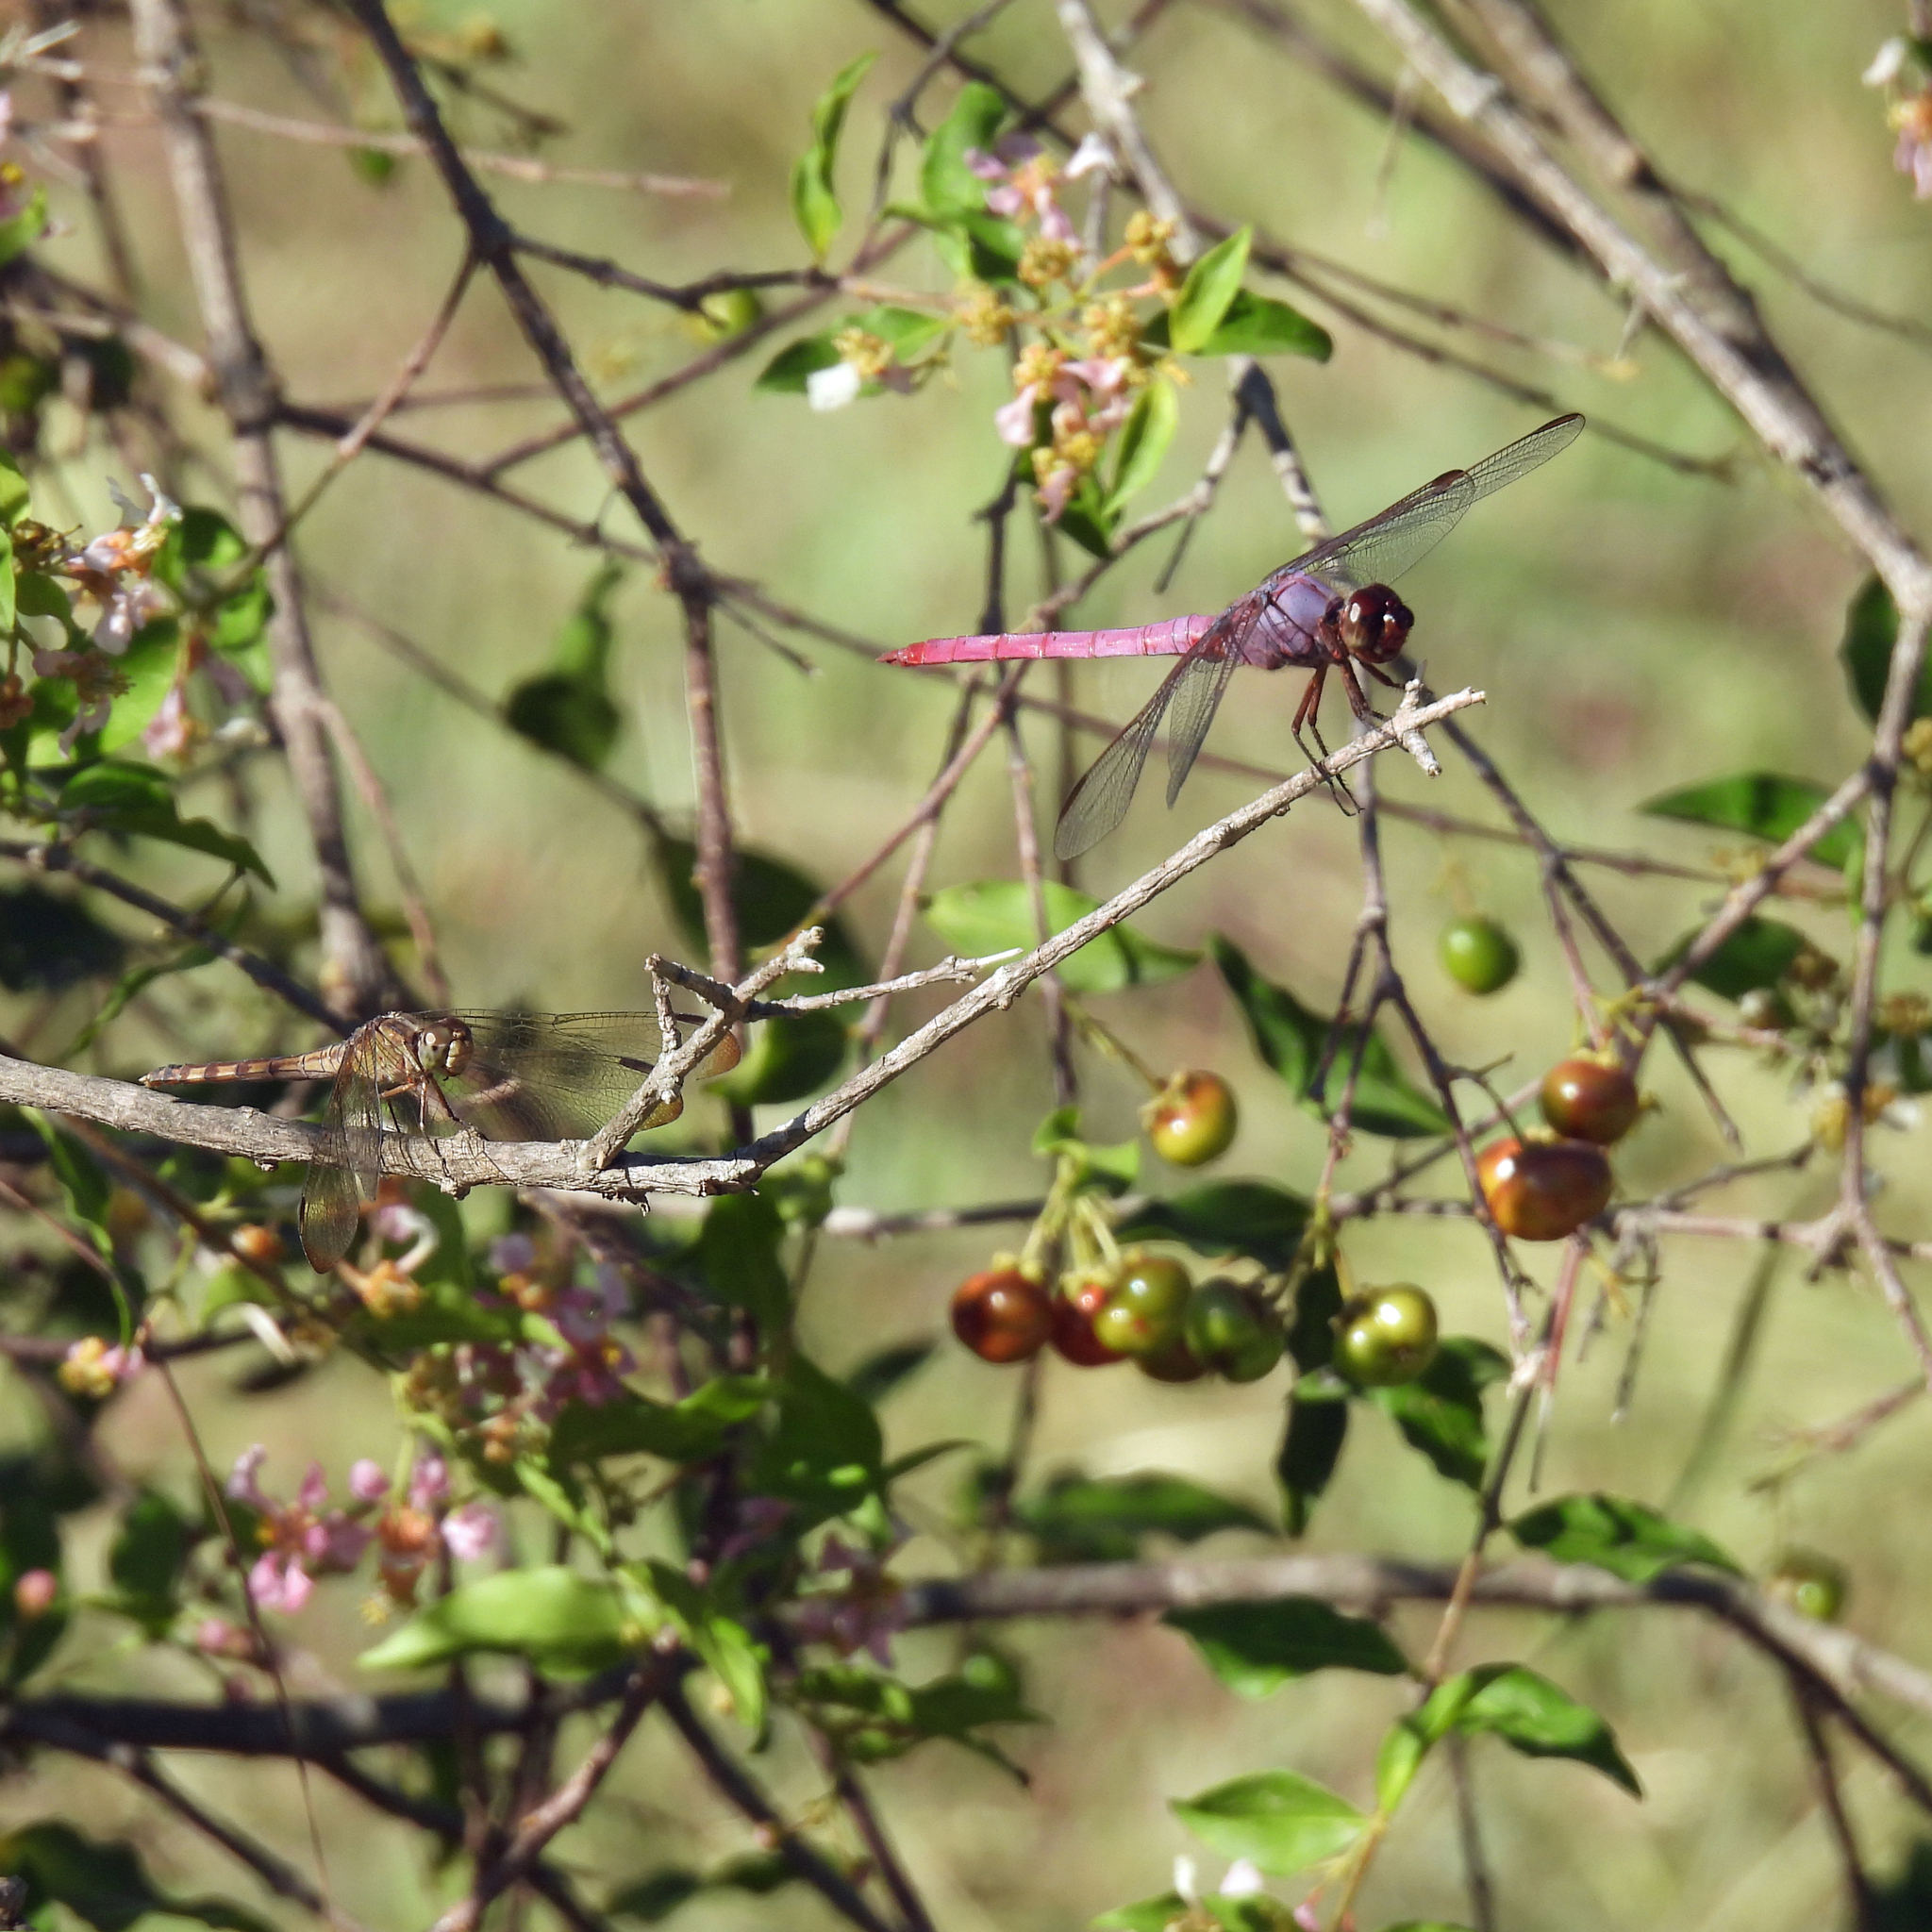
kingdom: Animalia
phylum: Arthropoda
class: Insecta
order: Odonata
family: Libellulidae
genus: Orthemis
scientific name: Orthemis ferruginea
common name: Roseate skimmer
